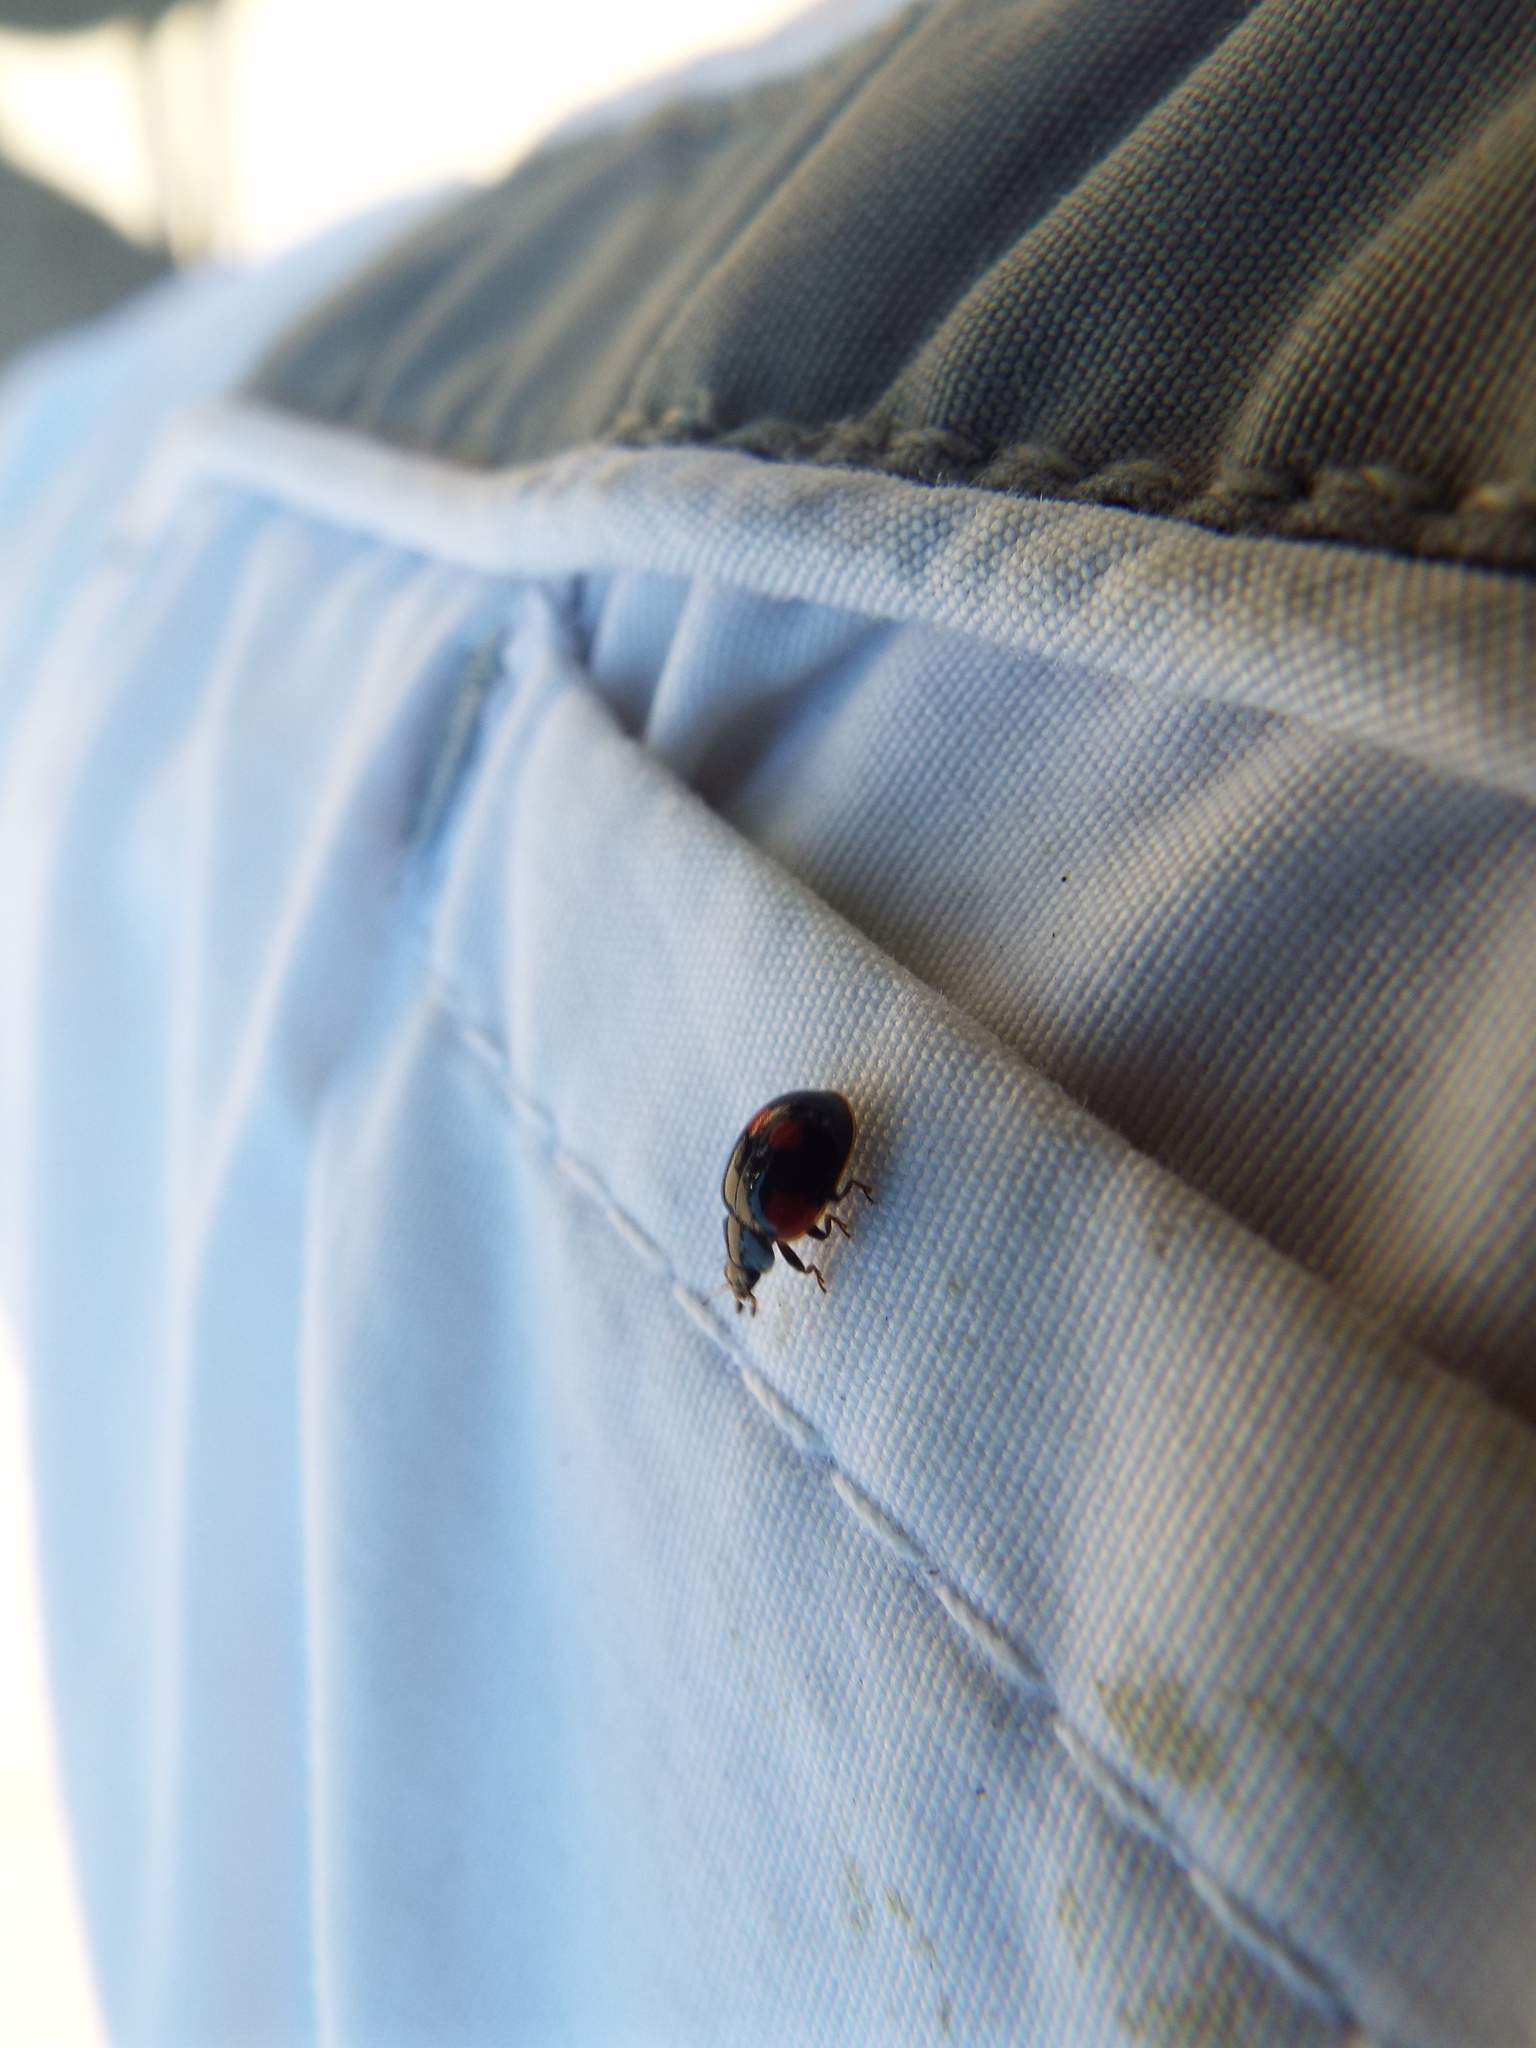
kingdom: Animalia
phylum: Arthropoda
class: Insecta
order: Coleoptera
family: Coccinellidae
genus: Adalia
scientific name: Adalia bipunctata
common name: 2-spot ladybird
